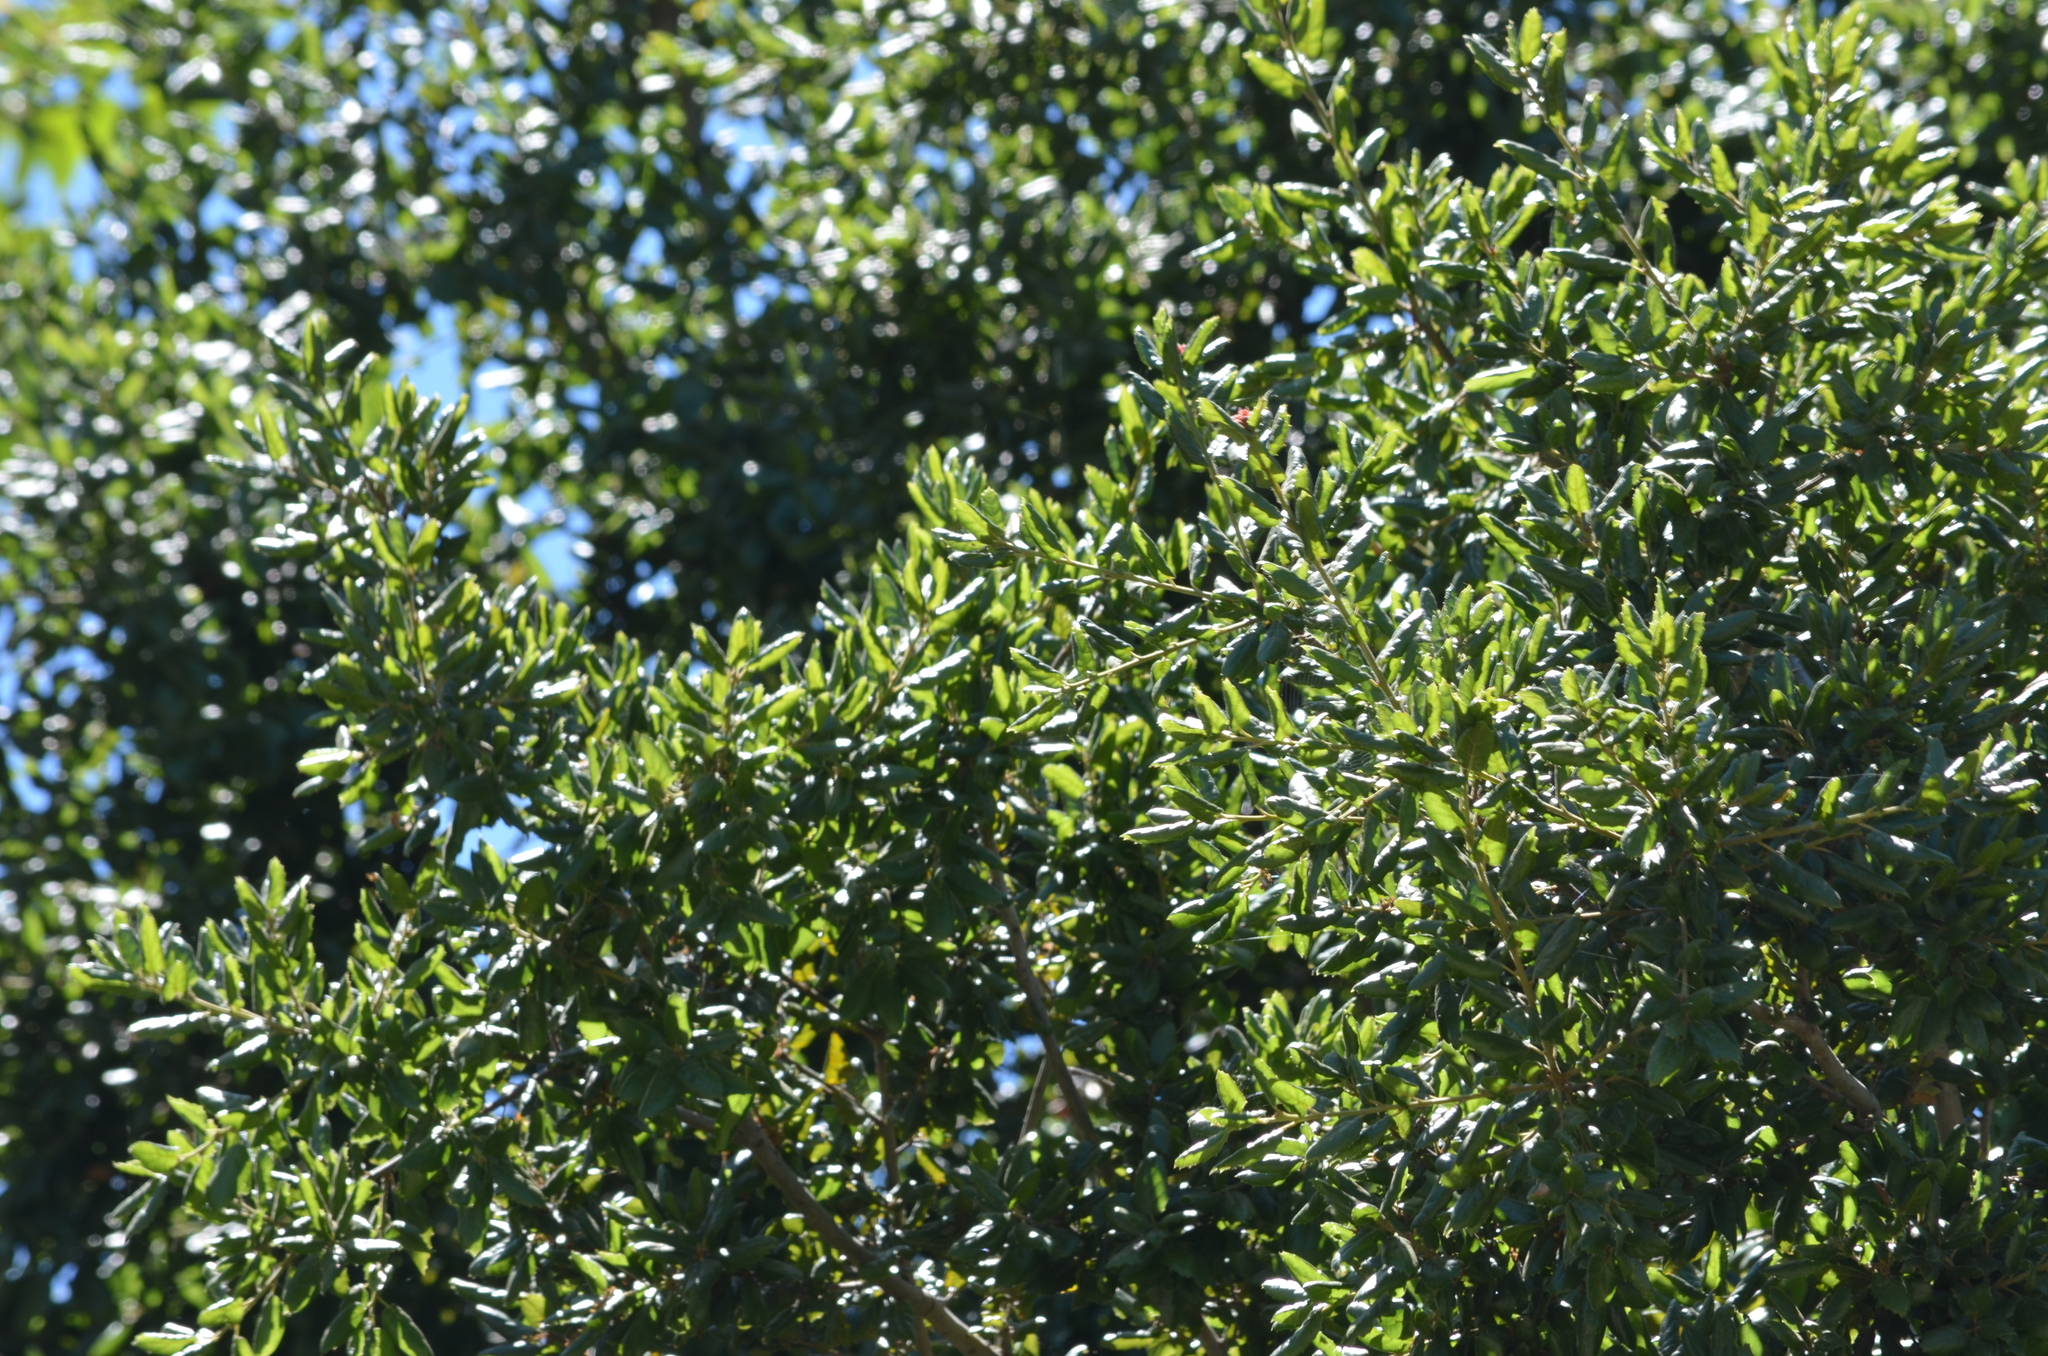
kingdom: Plantae
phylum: Tracheophyta
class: Magnoliopsida
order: Fagales
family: Fagaceae
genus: Quercus
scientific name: Quercus agrifolia
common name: California live oak
